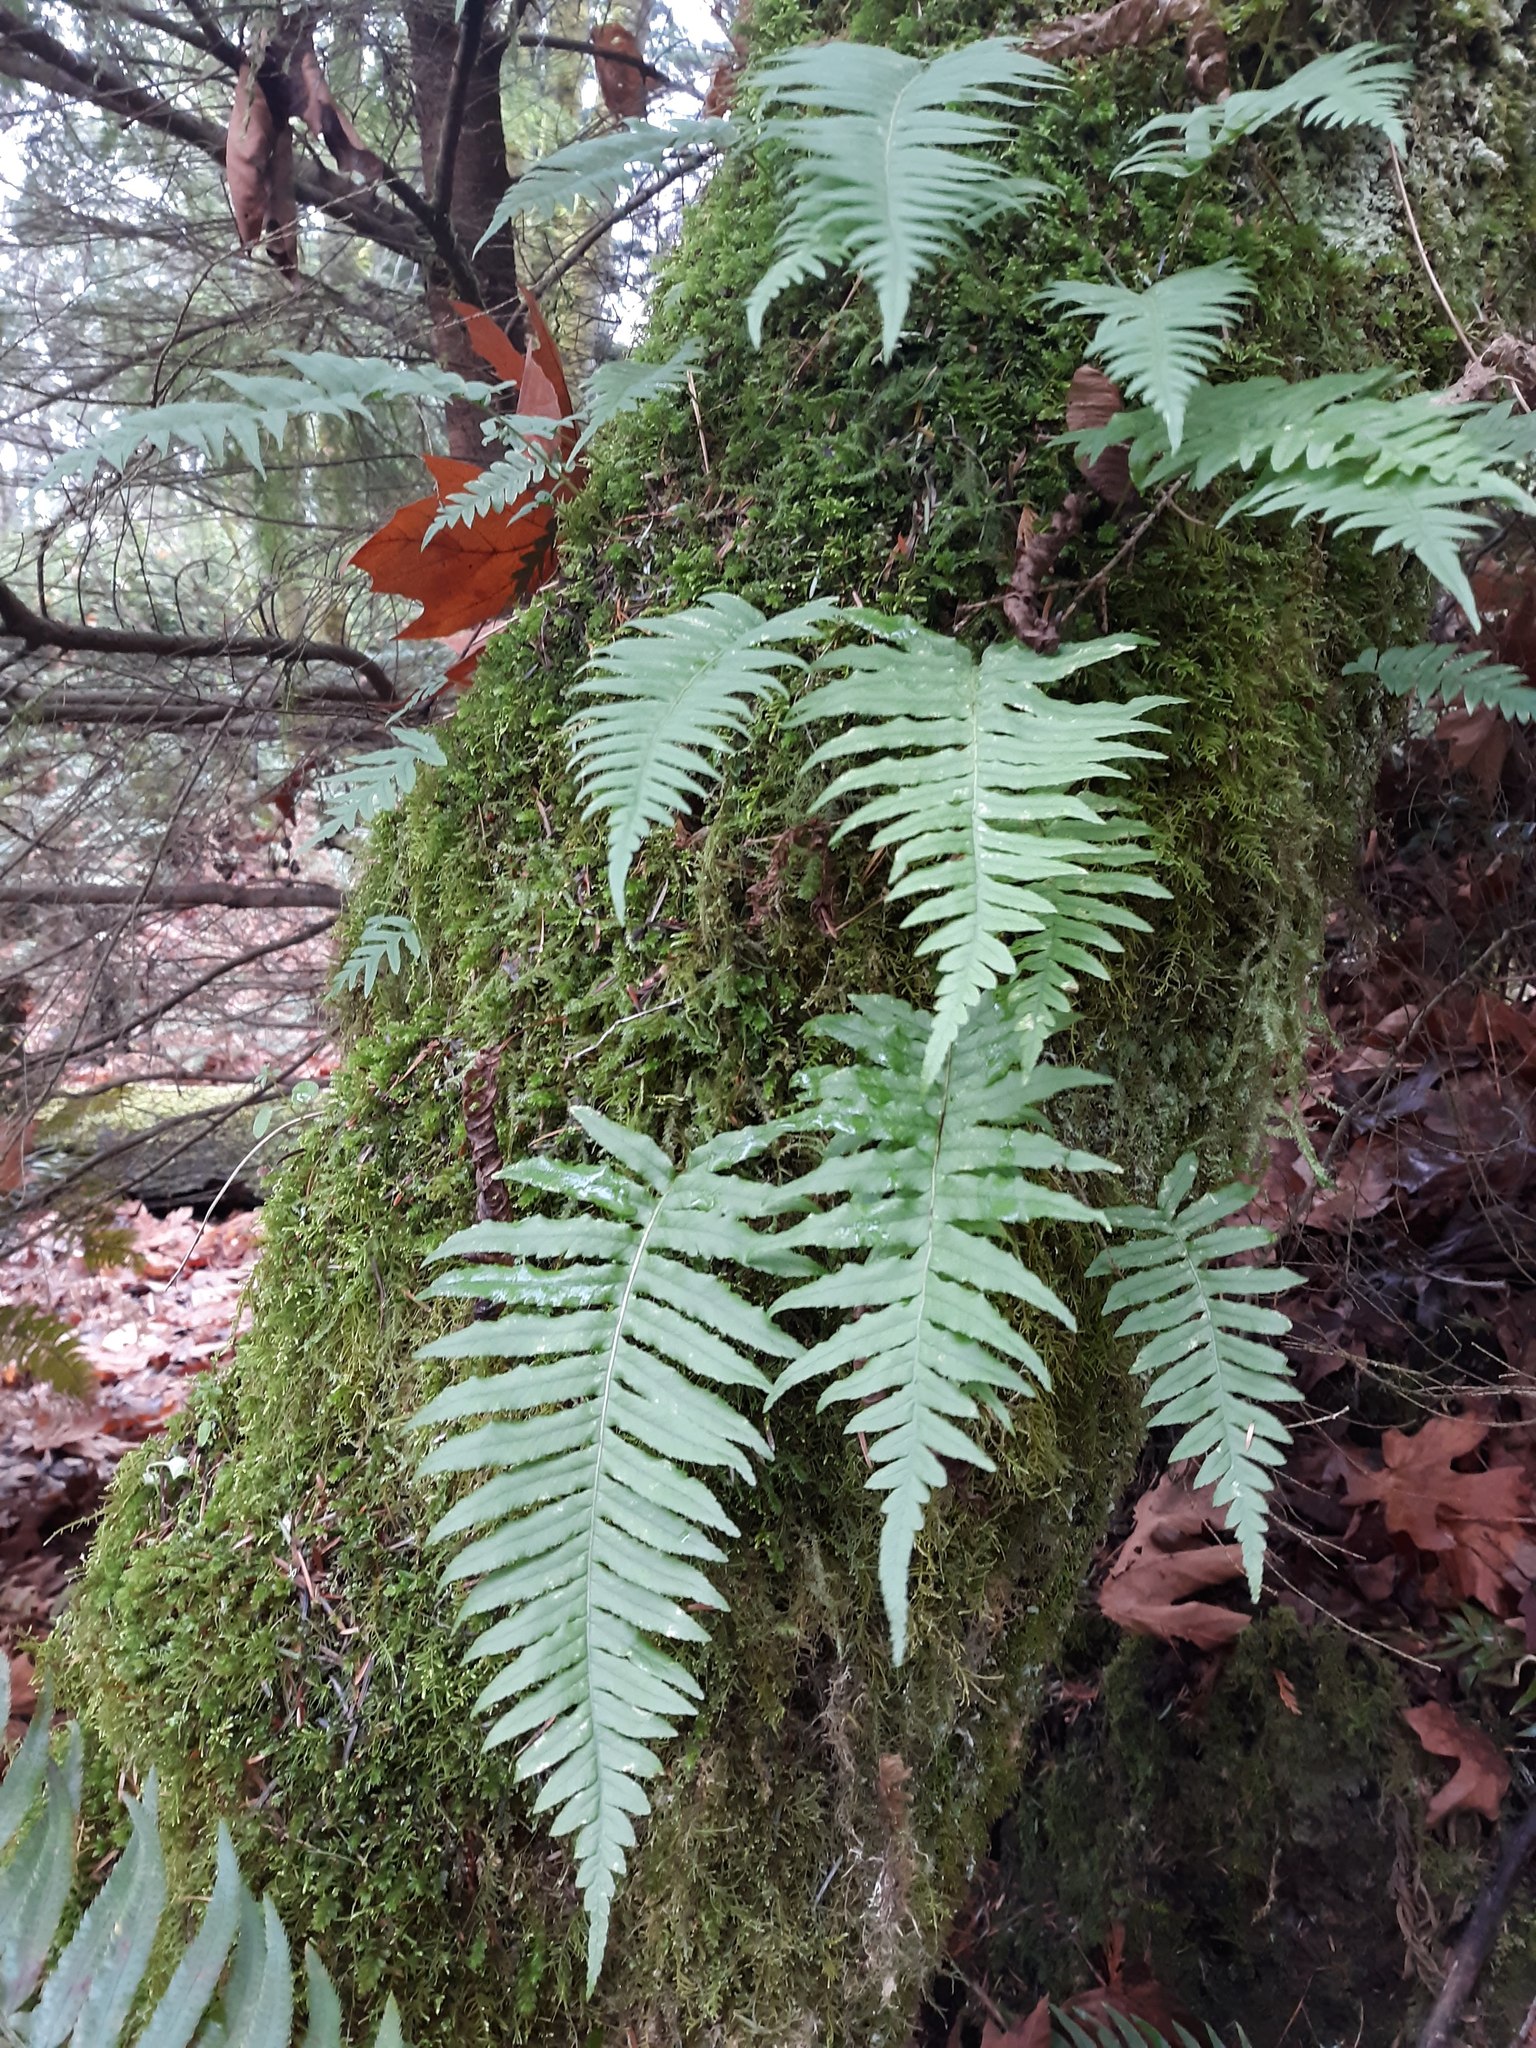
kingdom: Plantae
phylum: Tracheophyta
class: Polypodiopsida
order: Polypodiales
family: Polypodiaceae
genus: Polypodium
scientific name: Polypodium glycyrrhiza
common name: Licorice fern
